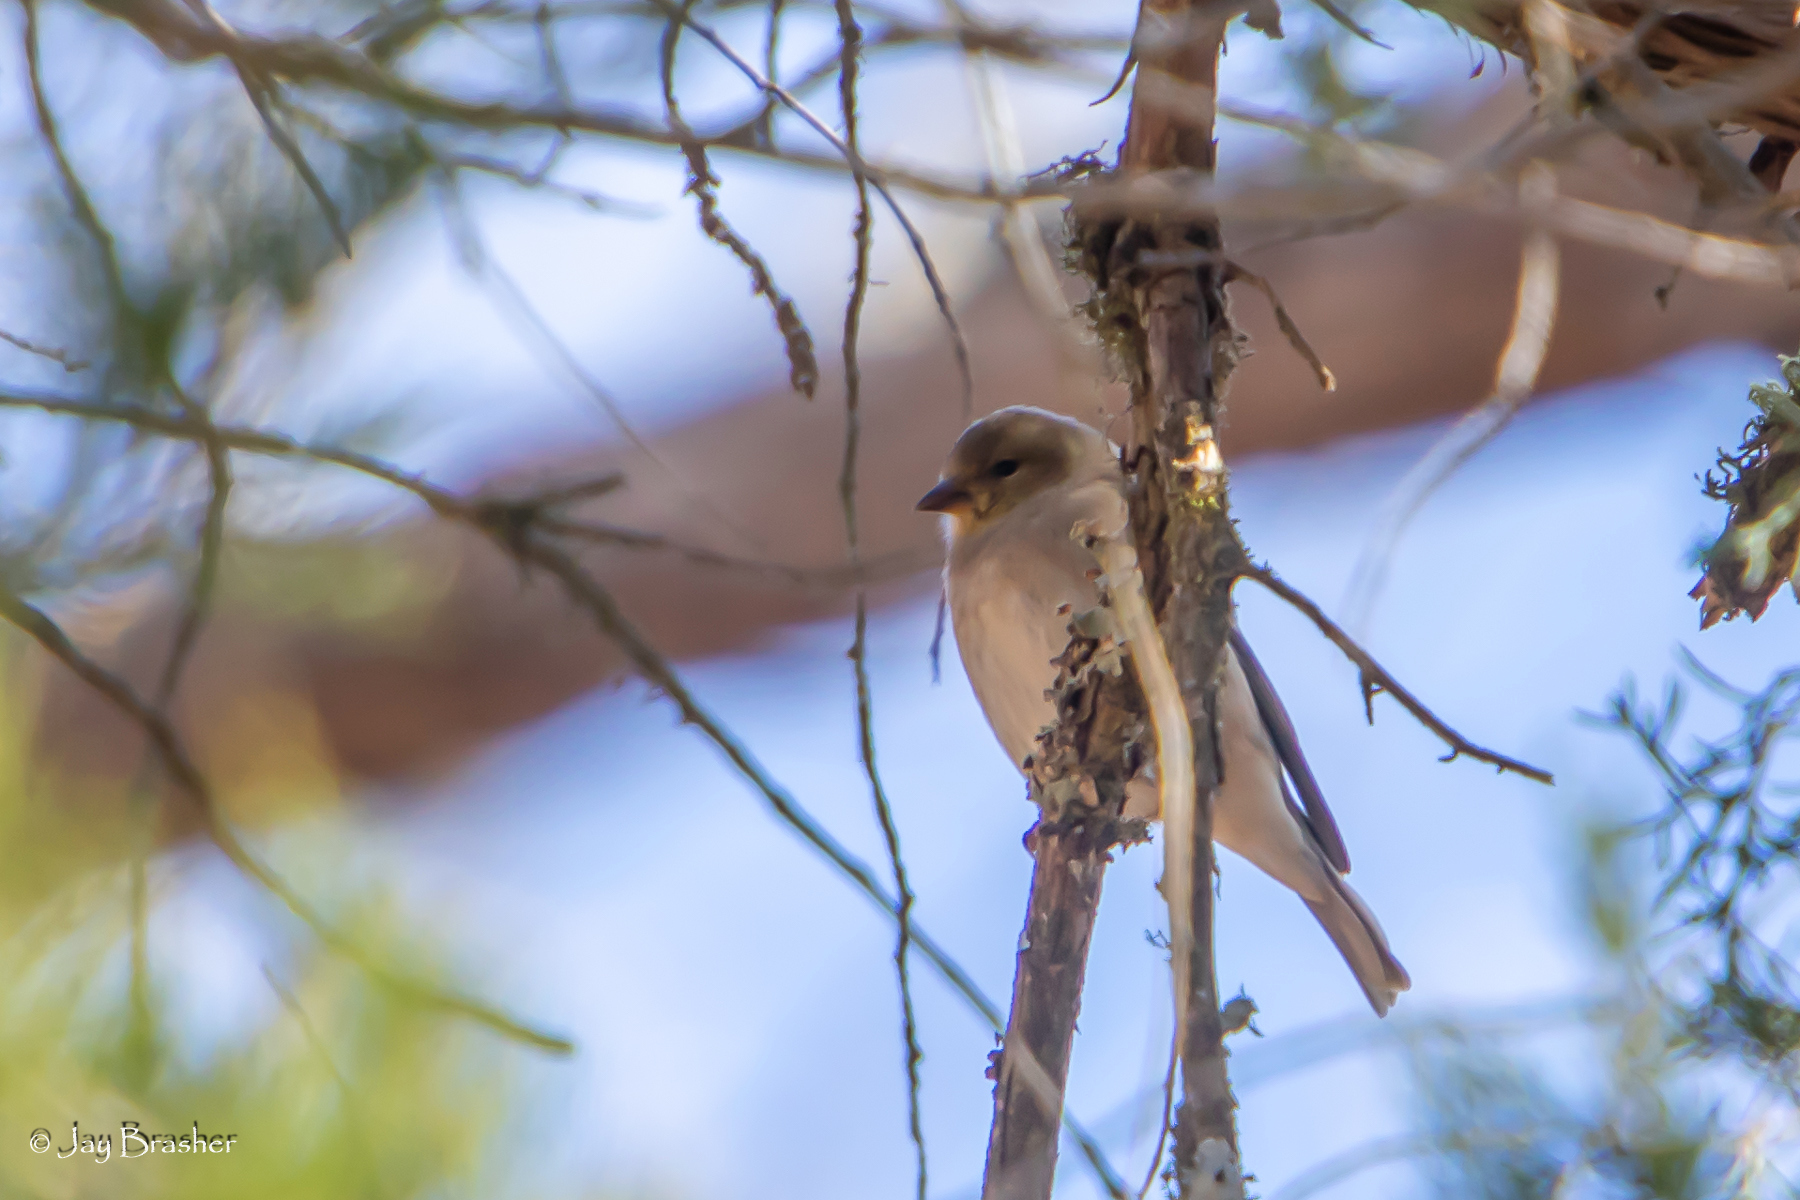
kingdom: Animalia
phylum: Chordata
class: Aves
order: Passeriformes
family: Fringillidae
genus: Spinus
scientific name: Spinus tristis
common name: American goldfinch
